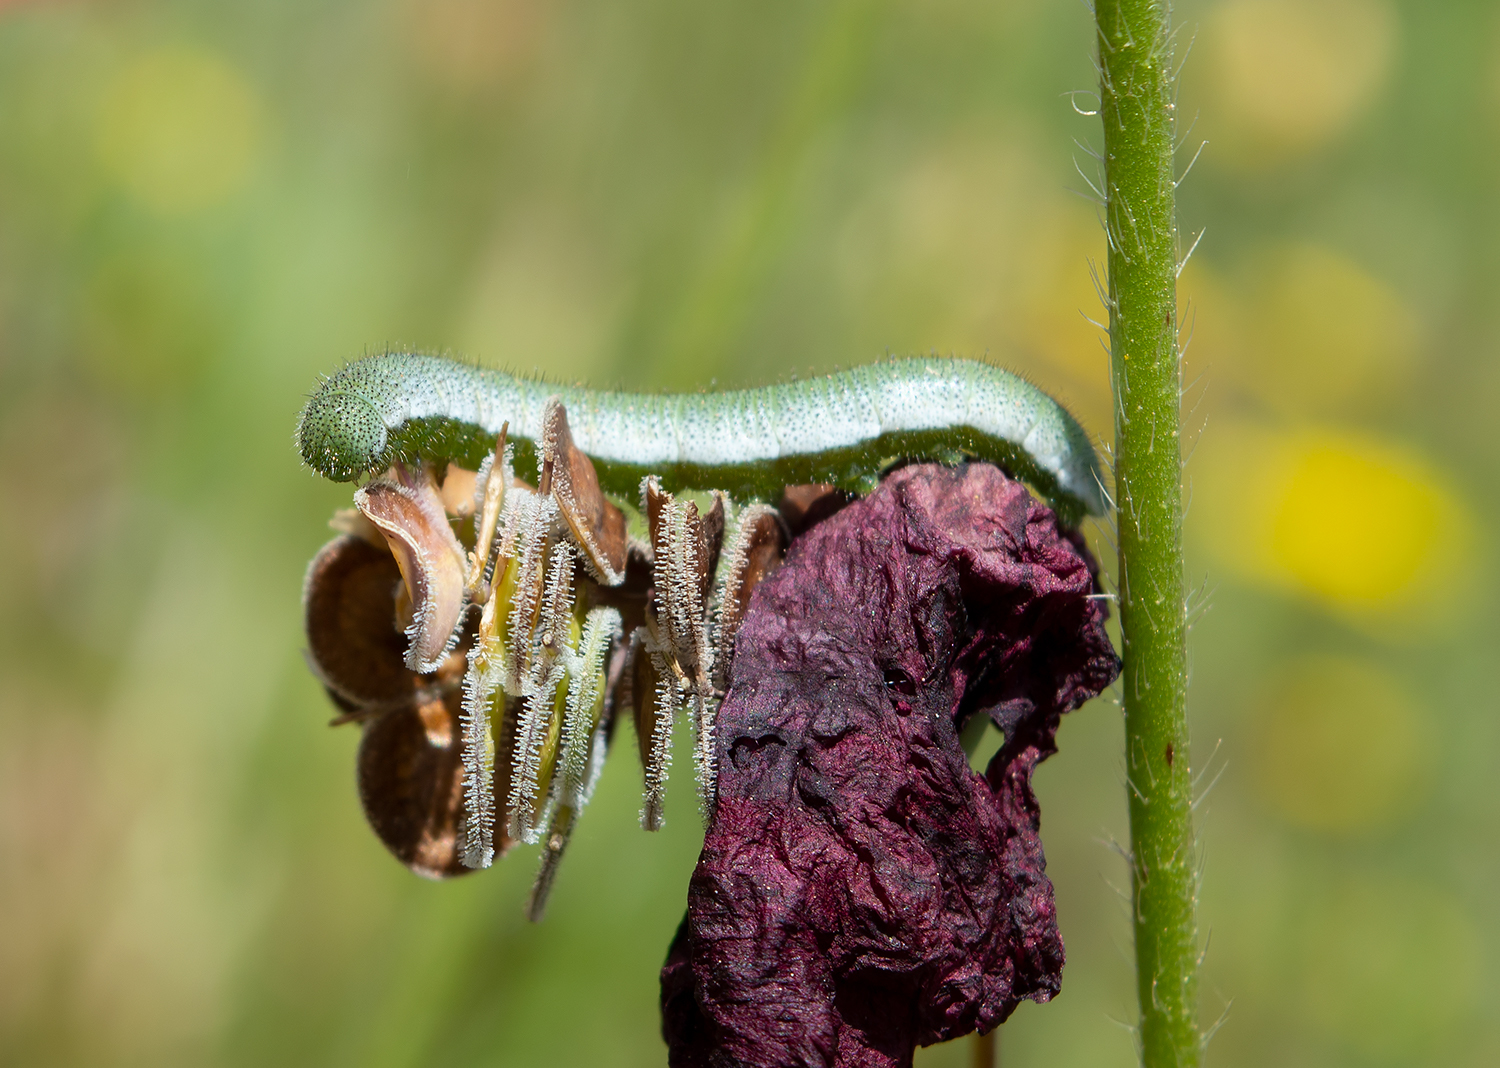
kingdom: Animalia
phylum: Arthropoda
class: Insecta
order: Lepidoptera
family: Pieridae
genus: Anthocharis
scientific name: Anthocharis cardamines
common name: Orange-tip
